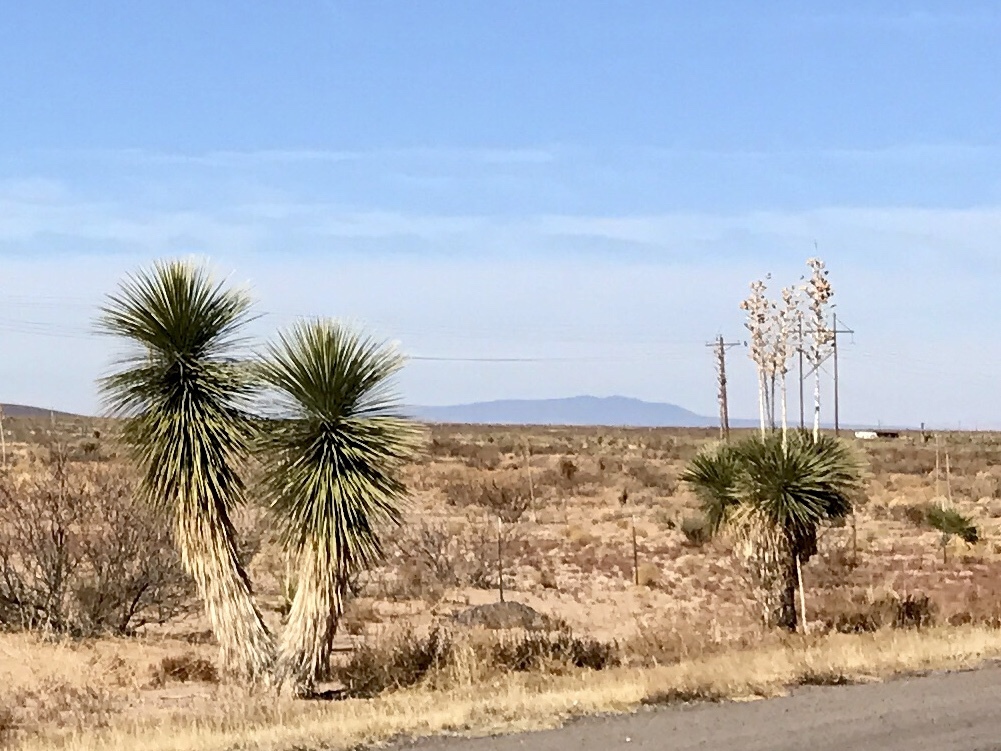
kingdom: Plantae
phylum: Tracheophyta
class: Liliopsida
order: Asparagales
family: Asparagaceae
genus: Yucca
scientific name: Yucca elata
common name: Palmella
